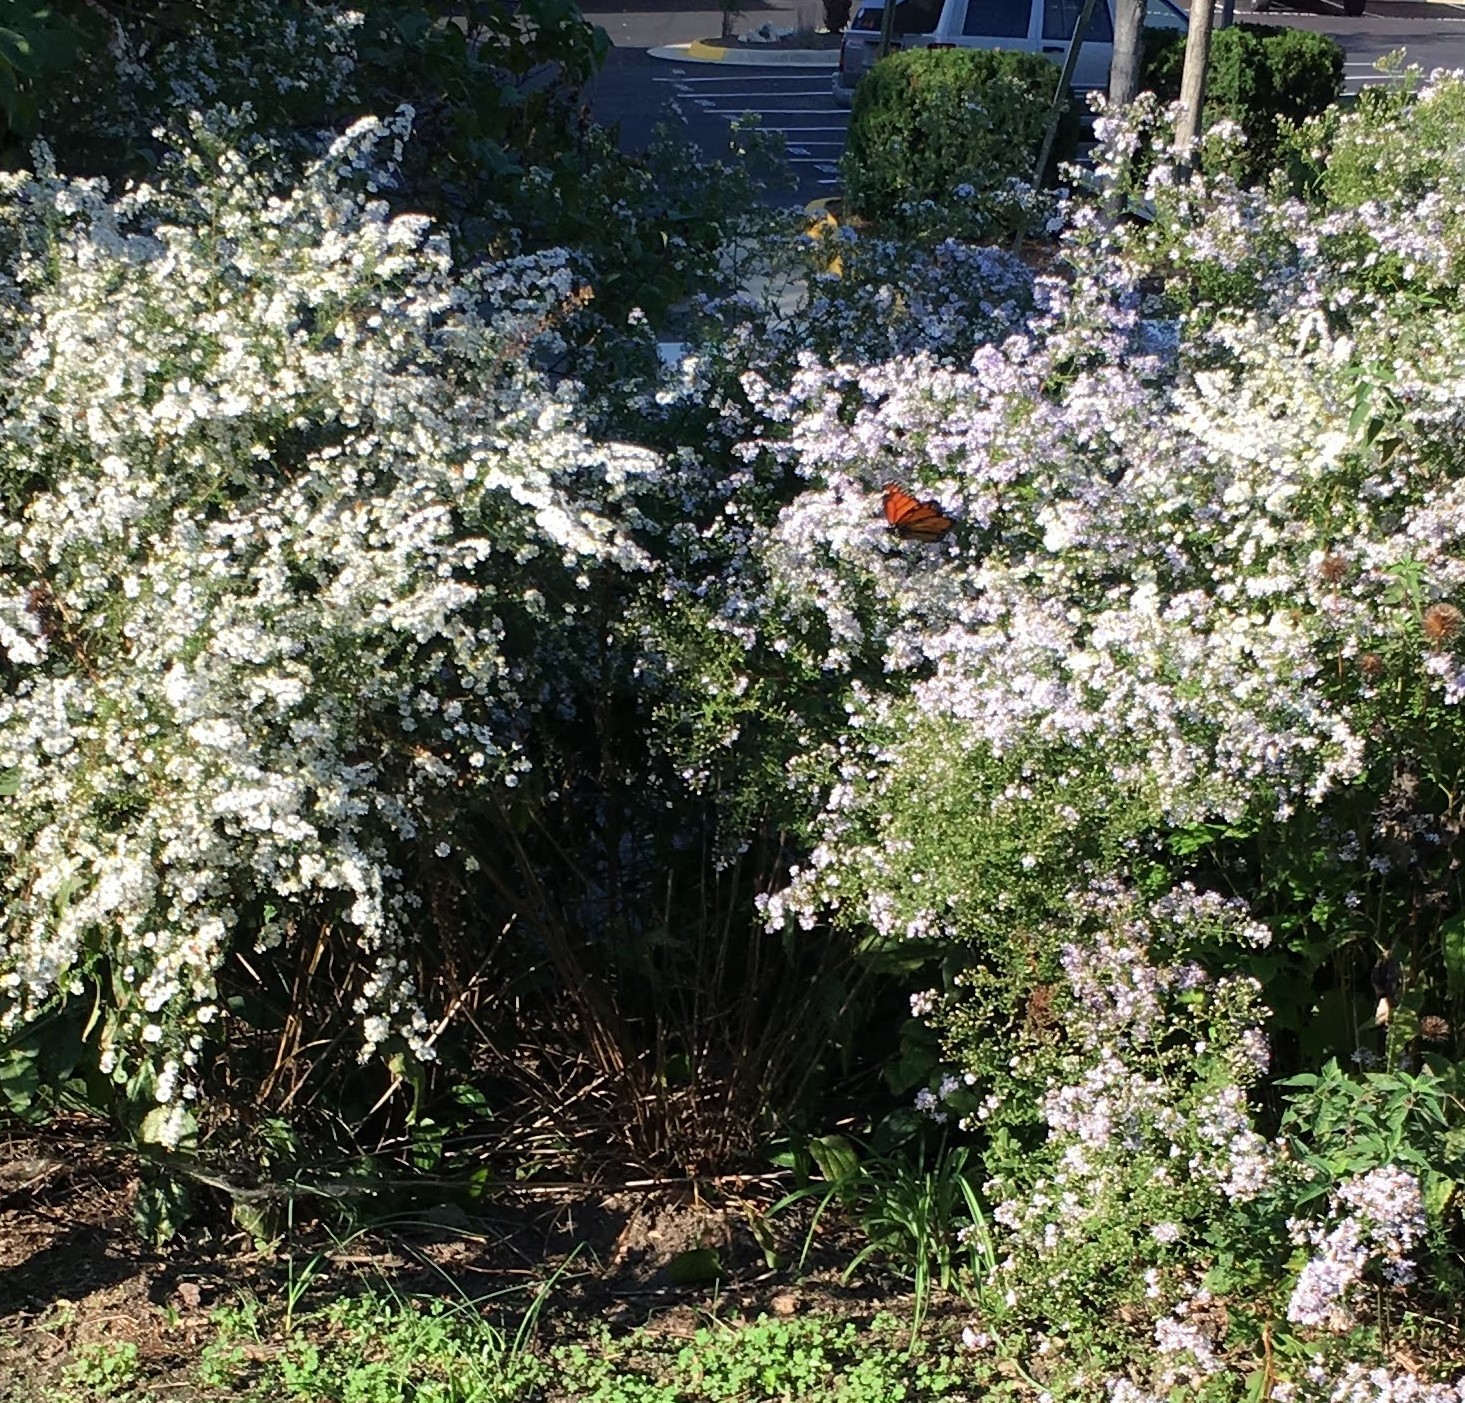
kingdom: Animalia
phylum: Arthropoda
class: Insecta
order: Lepidoptera
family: Nymphalidae
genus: Danaus
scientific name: Danaus plexippus
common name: Monarch
